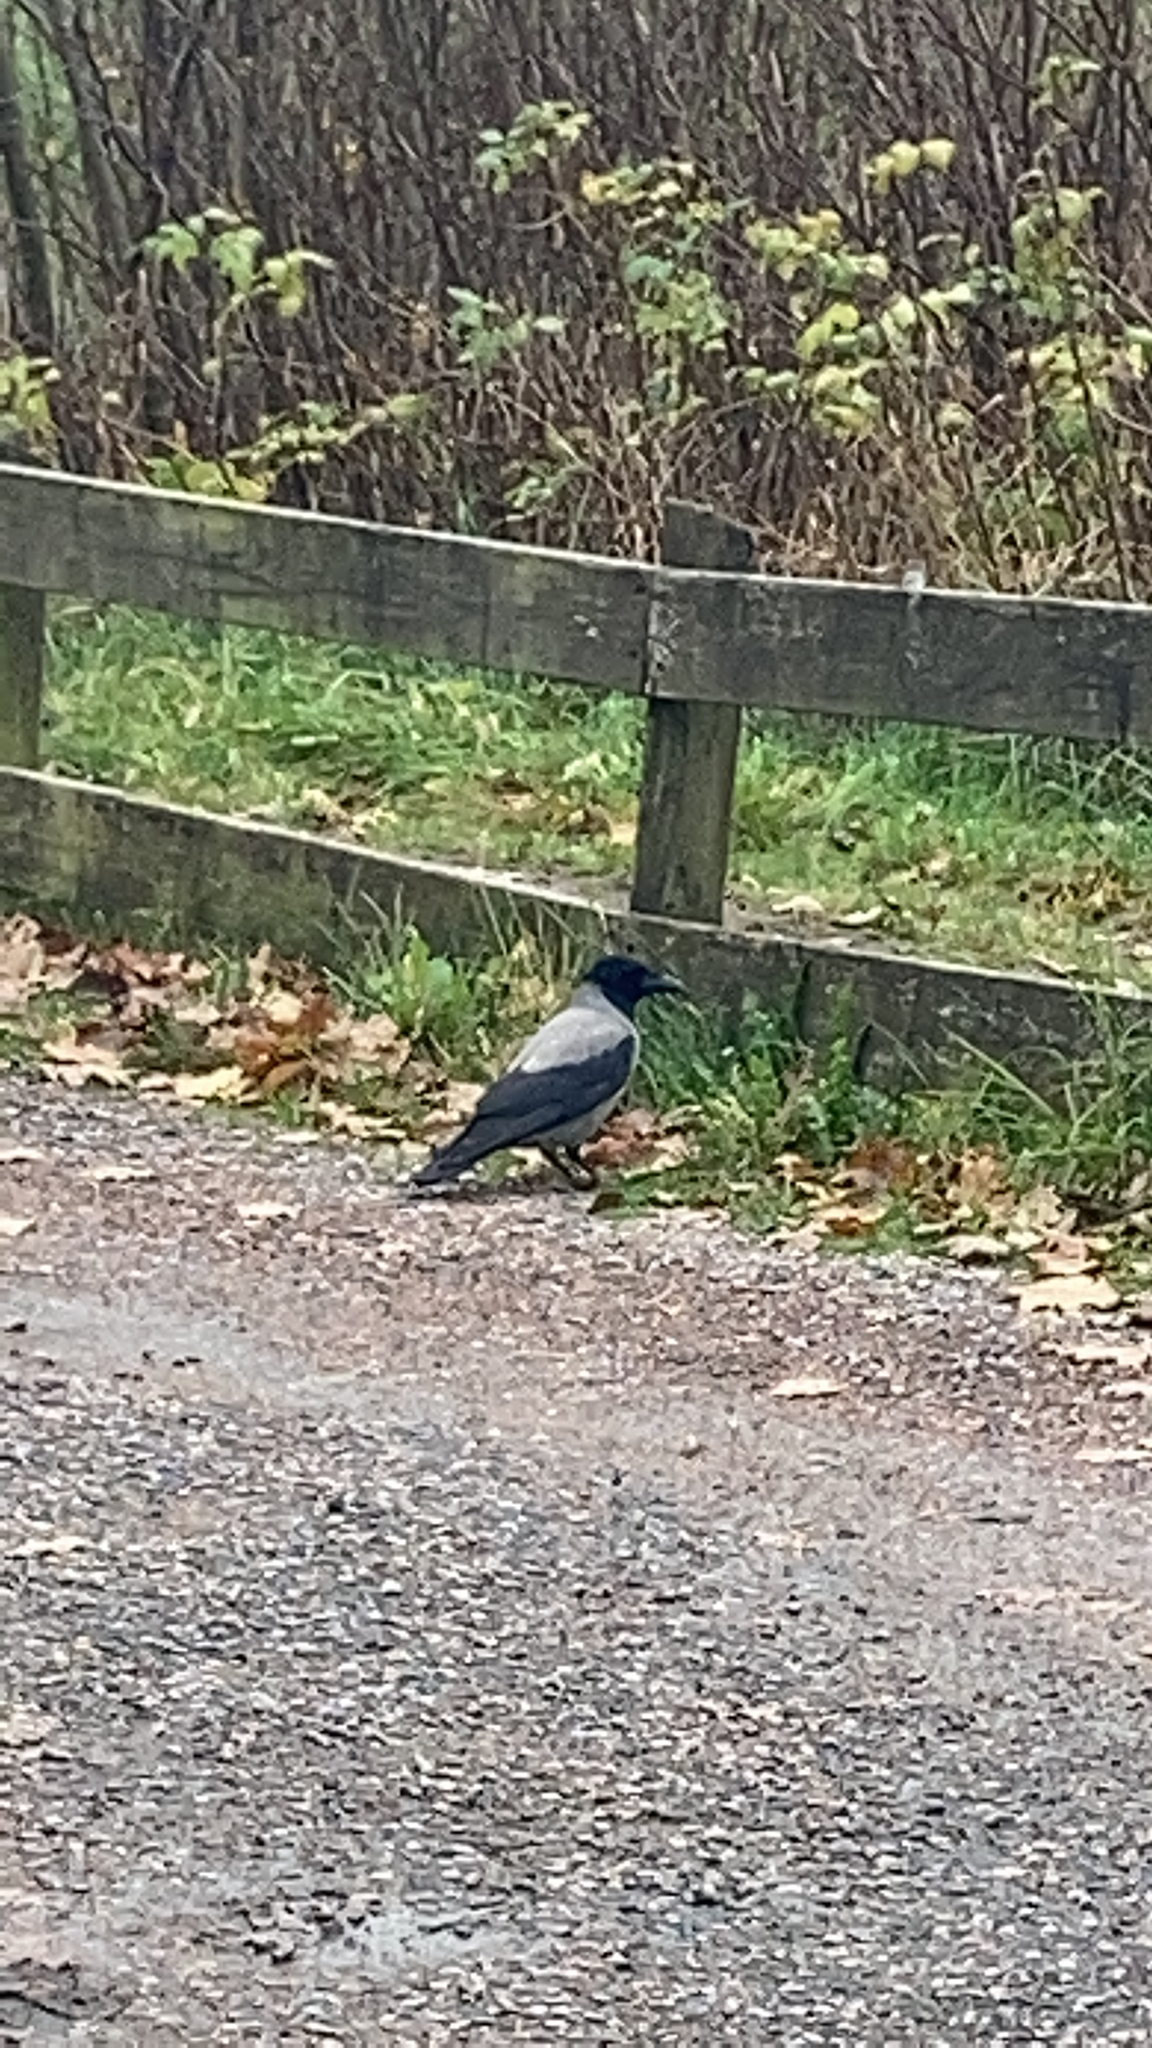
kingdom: Animalia
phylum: Chordata
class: Aves
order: Passeriformes
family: Corvidae
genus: Corvus
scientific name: Corvus cornix
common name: Hooded crow
